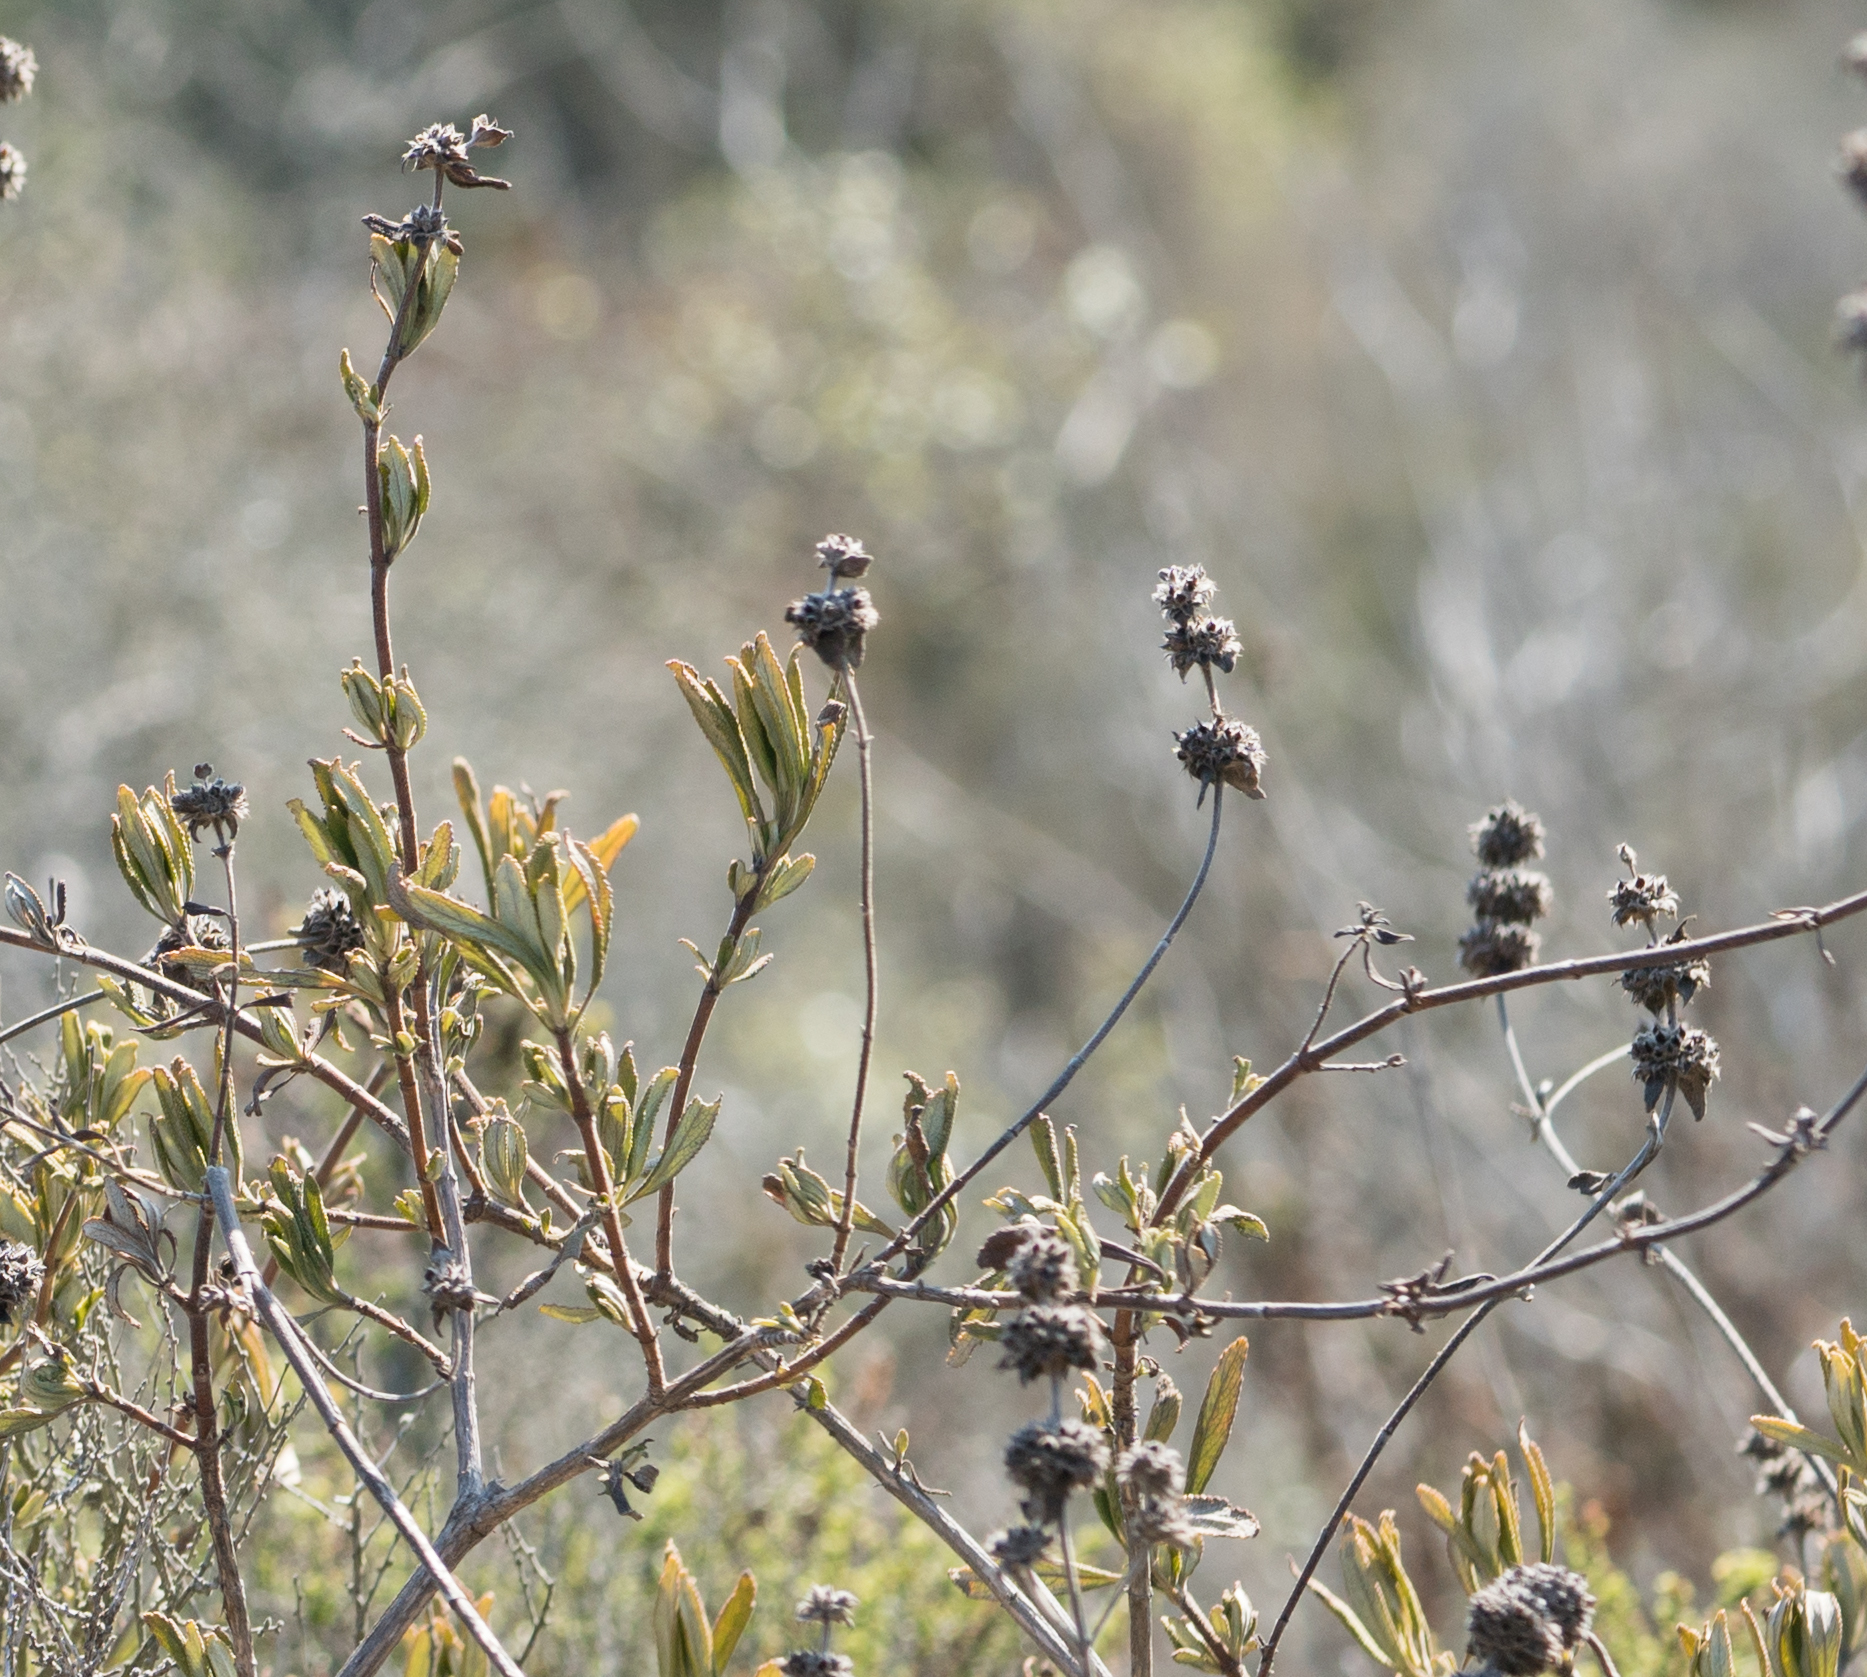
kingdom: Plantae
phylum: Tracheophyta
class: Magnoliopsida
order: Lamiales
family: Lamiaceae
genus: Salvia
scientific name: Salvia mellifera
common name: Black sage
